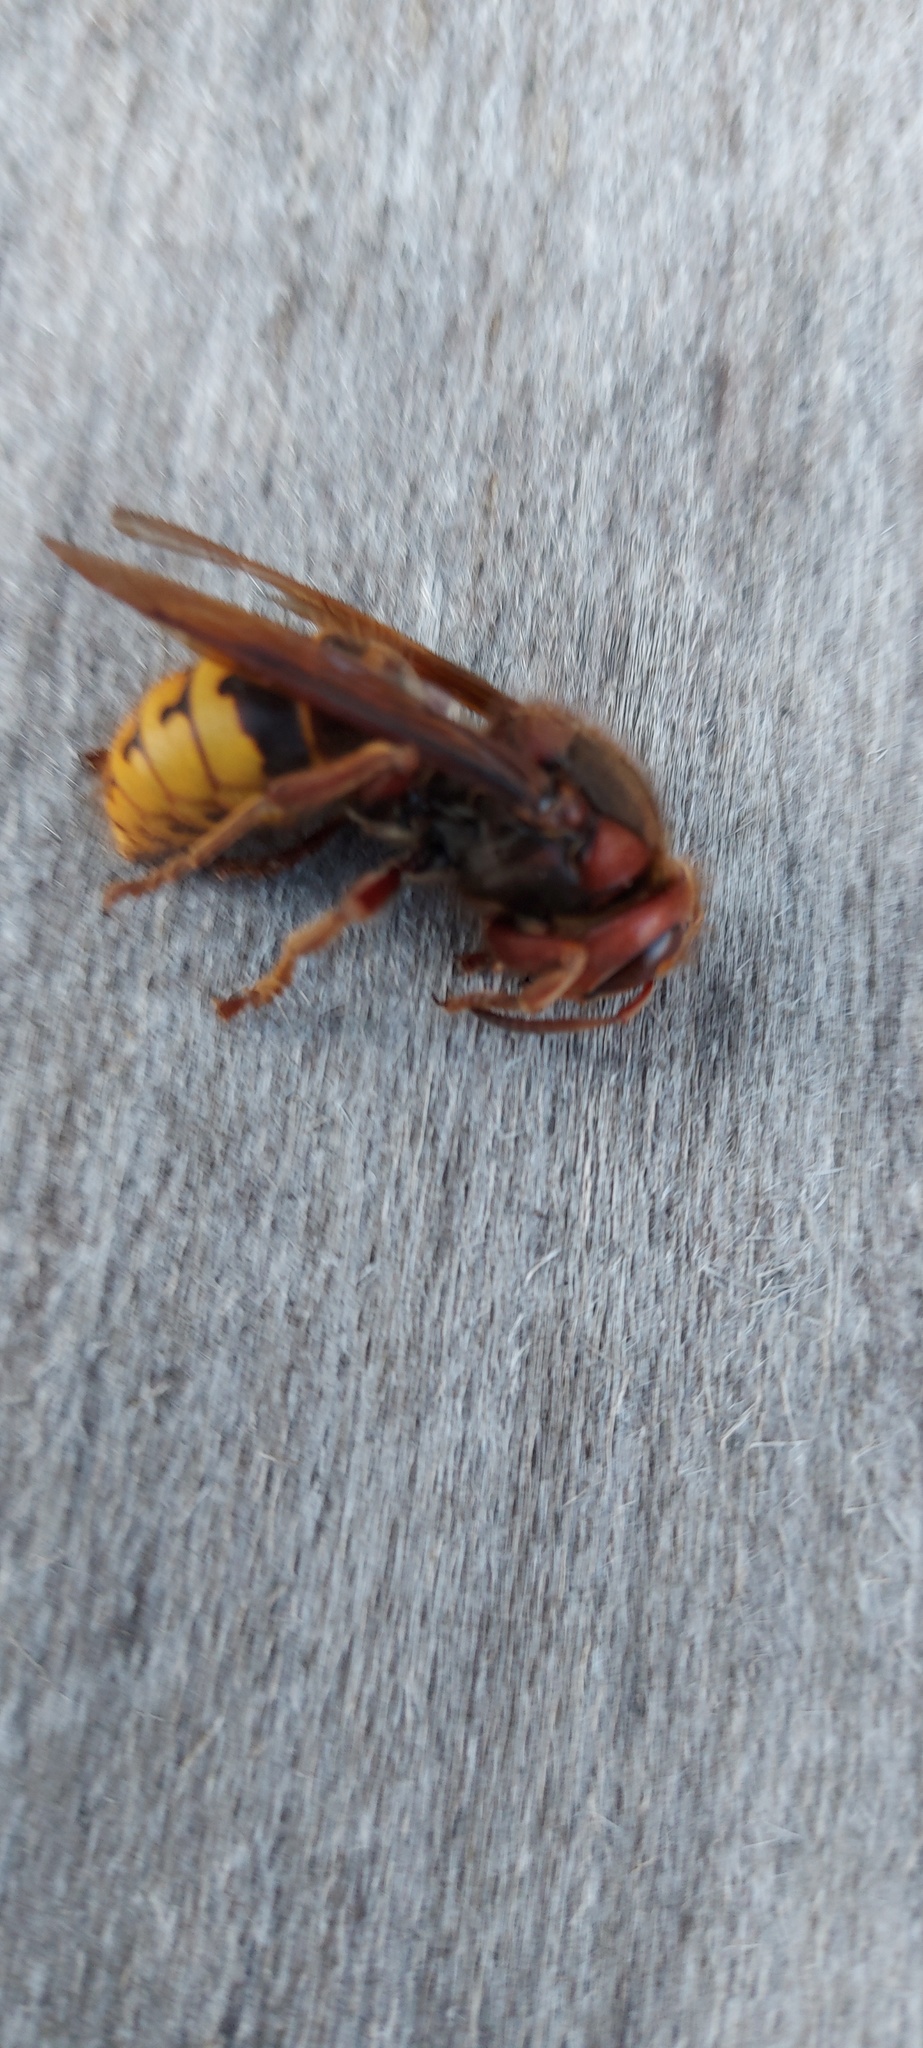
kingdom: Animalia
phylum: Arthropoda
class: Insecta
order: Hymenoptera
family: Vespidae
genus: Vespa
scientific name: Vespa crabro
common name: Hornet
